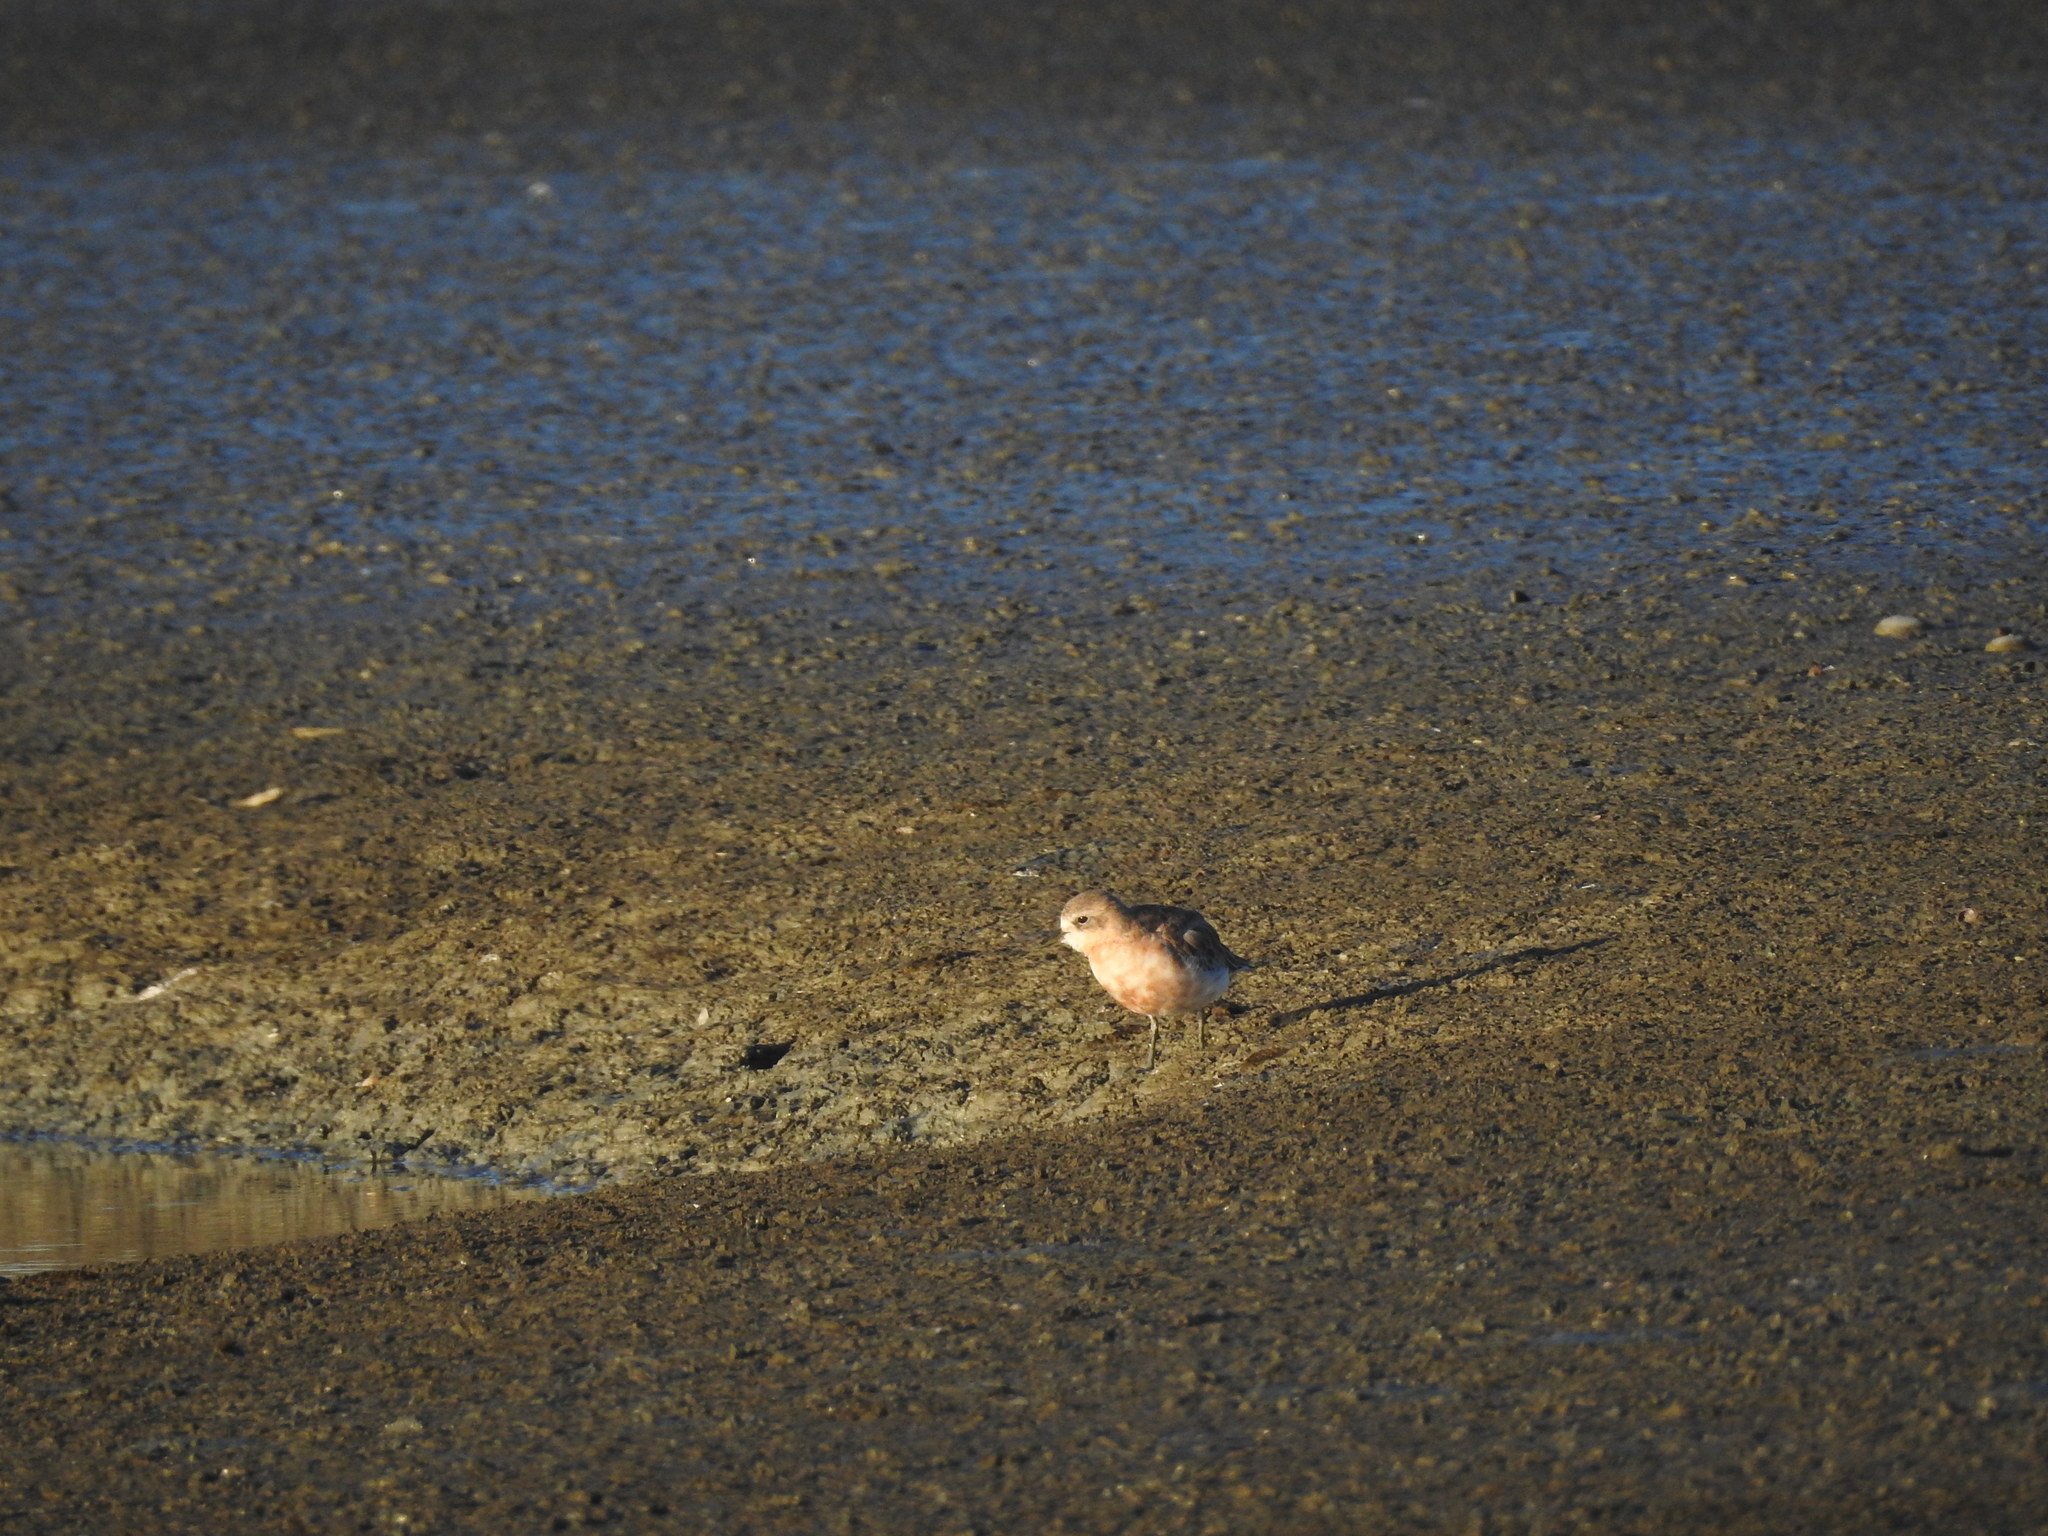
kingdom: Animalia
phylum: Chordata
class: Aves
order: Charadriiformes
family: Charadriidae
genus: Anarhynchus
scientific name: Anarhynchus
